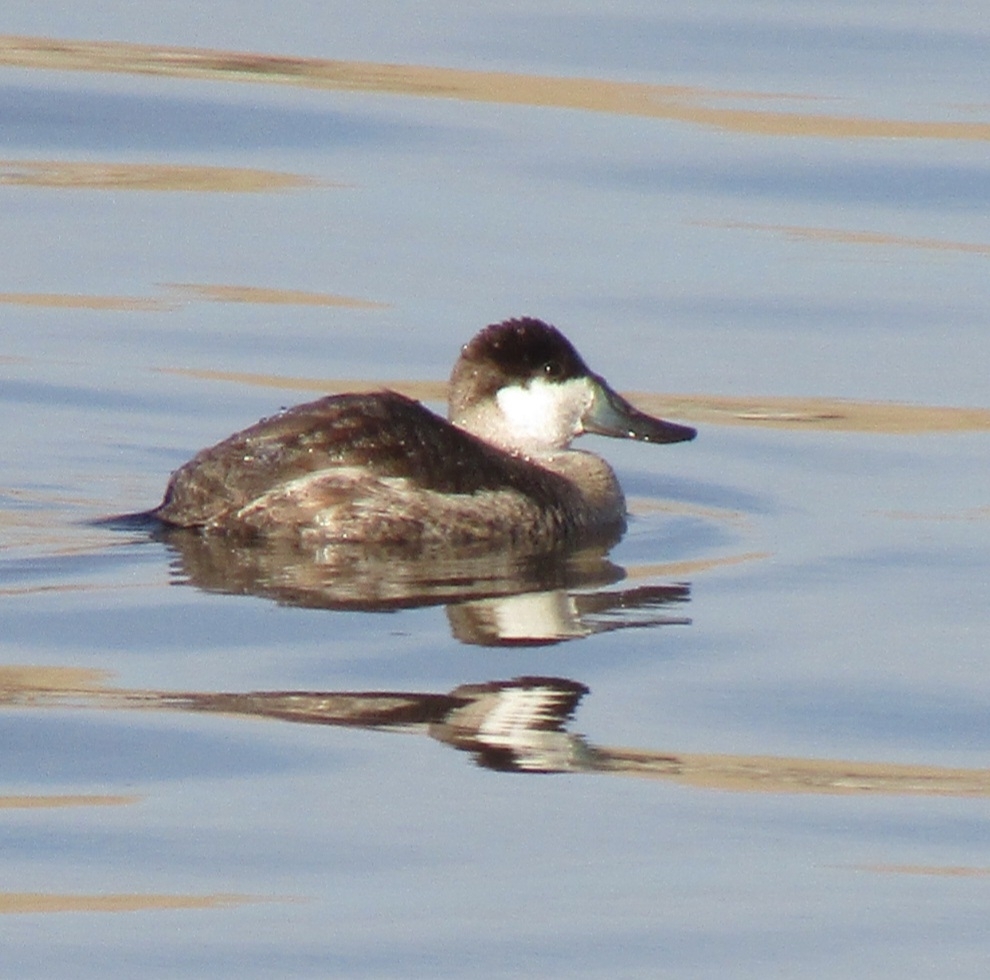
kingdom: Animalia
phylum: Chordata
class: Aves
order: Anseriformes
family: Anatidae
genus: Oxyura
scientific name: Oxyura jamaicensis
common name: Ruddy duck
